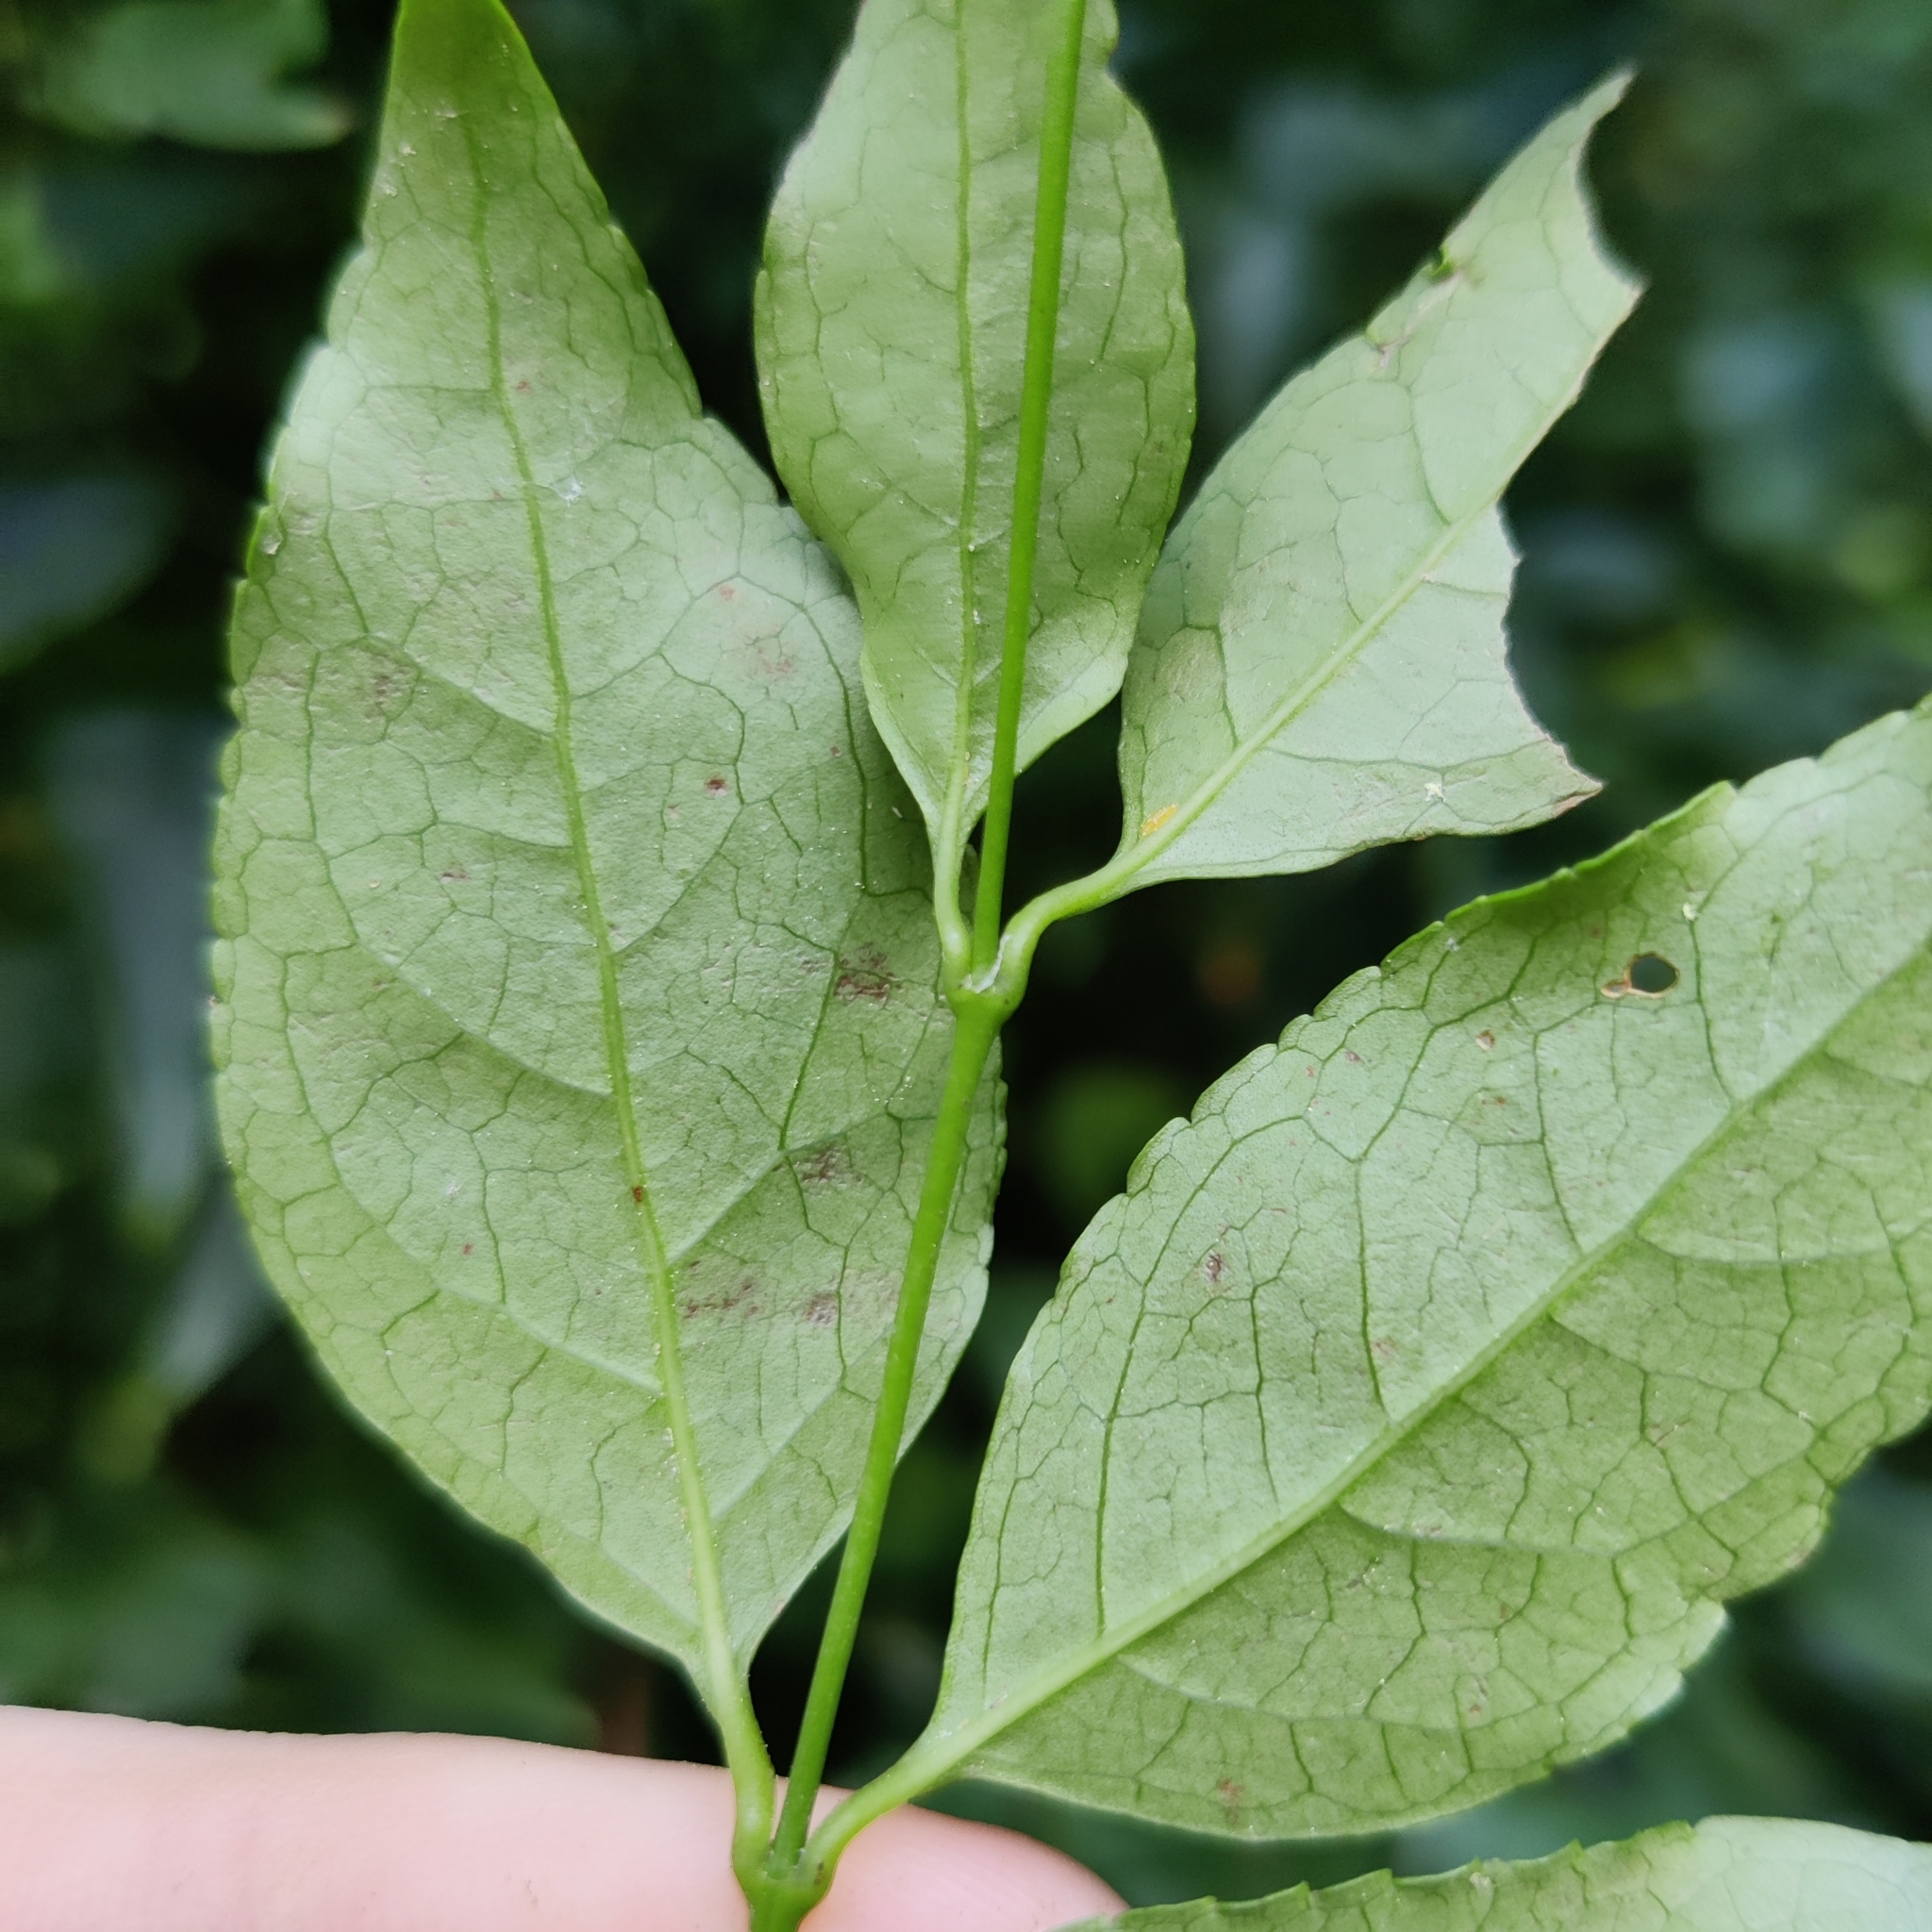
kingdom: Plantae
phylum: Tracheophyta
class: Magnoliopsida
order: Lamiales
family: Stilbaceae
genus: Halleria
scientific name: Halleria lucida
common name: Tree fuschia
